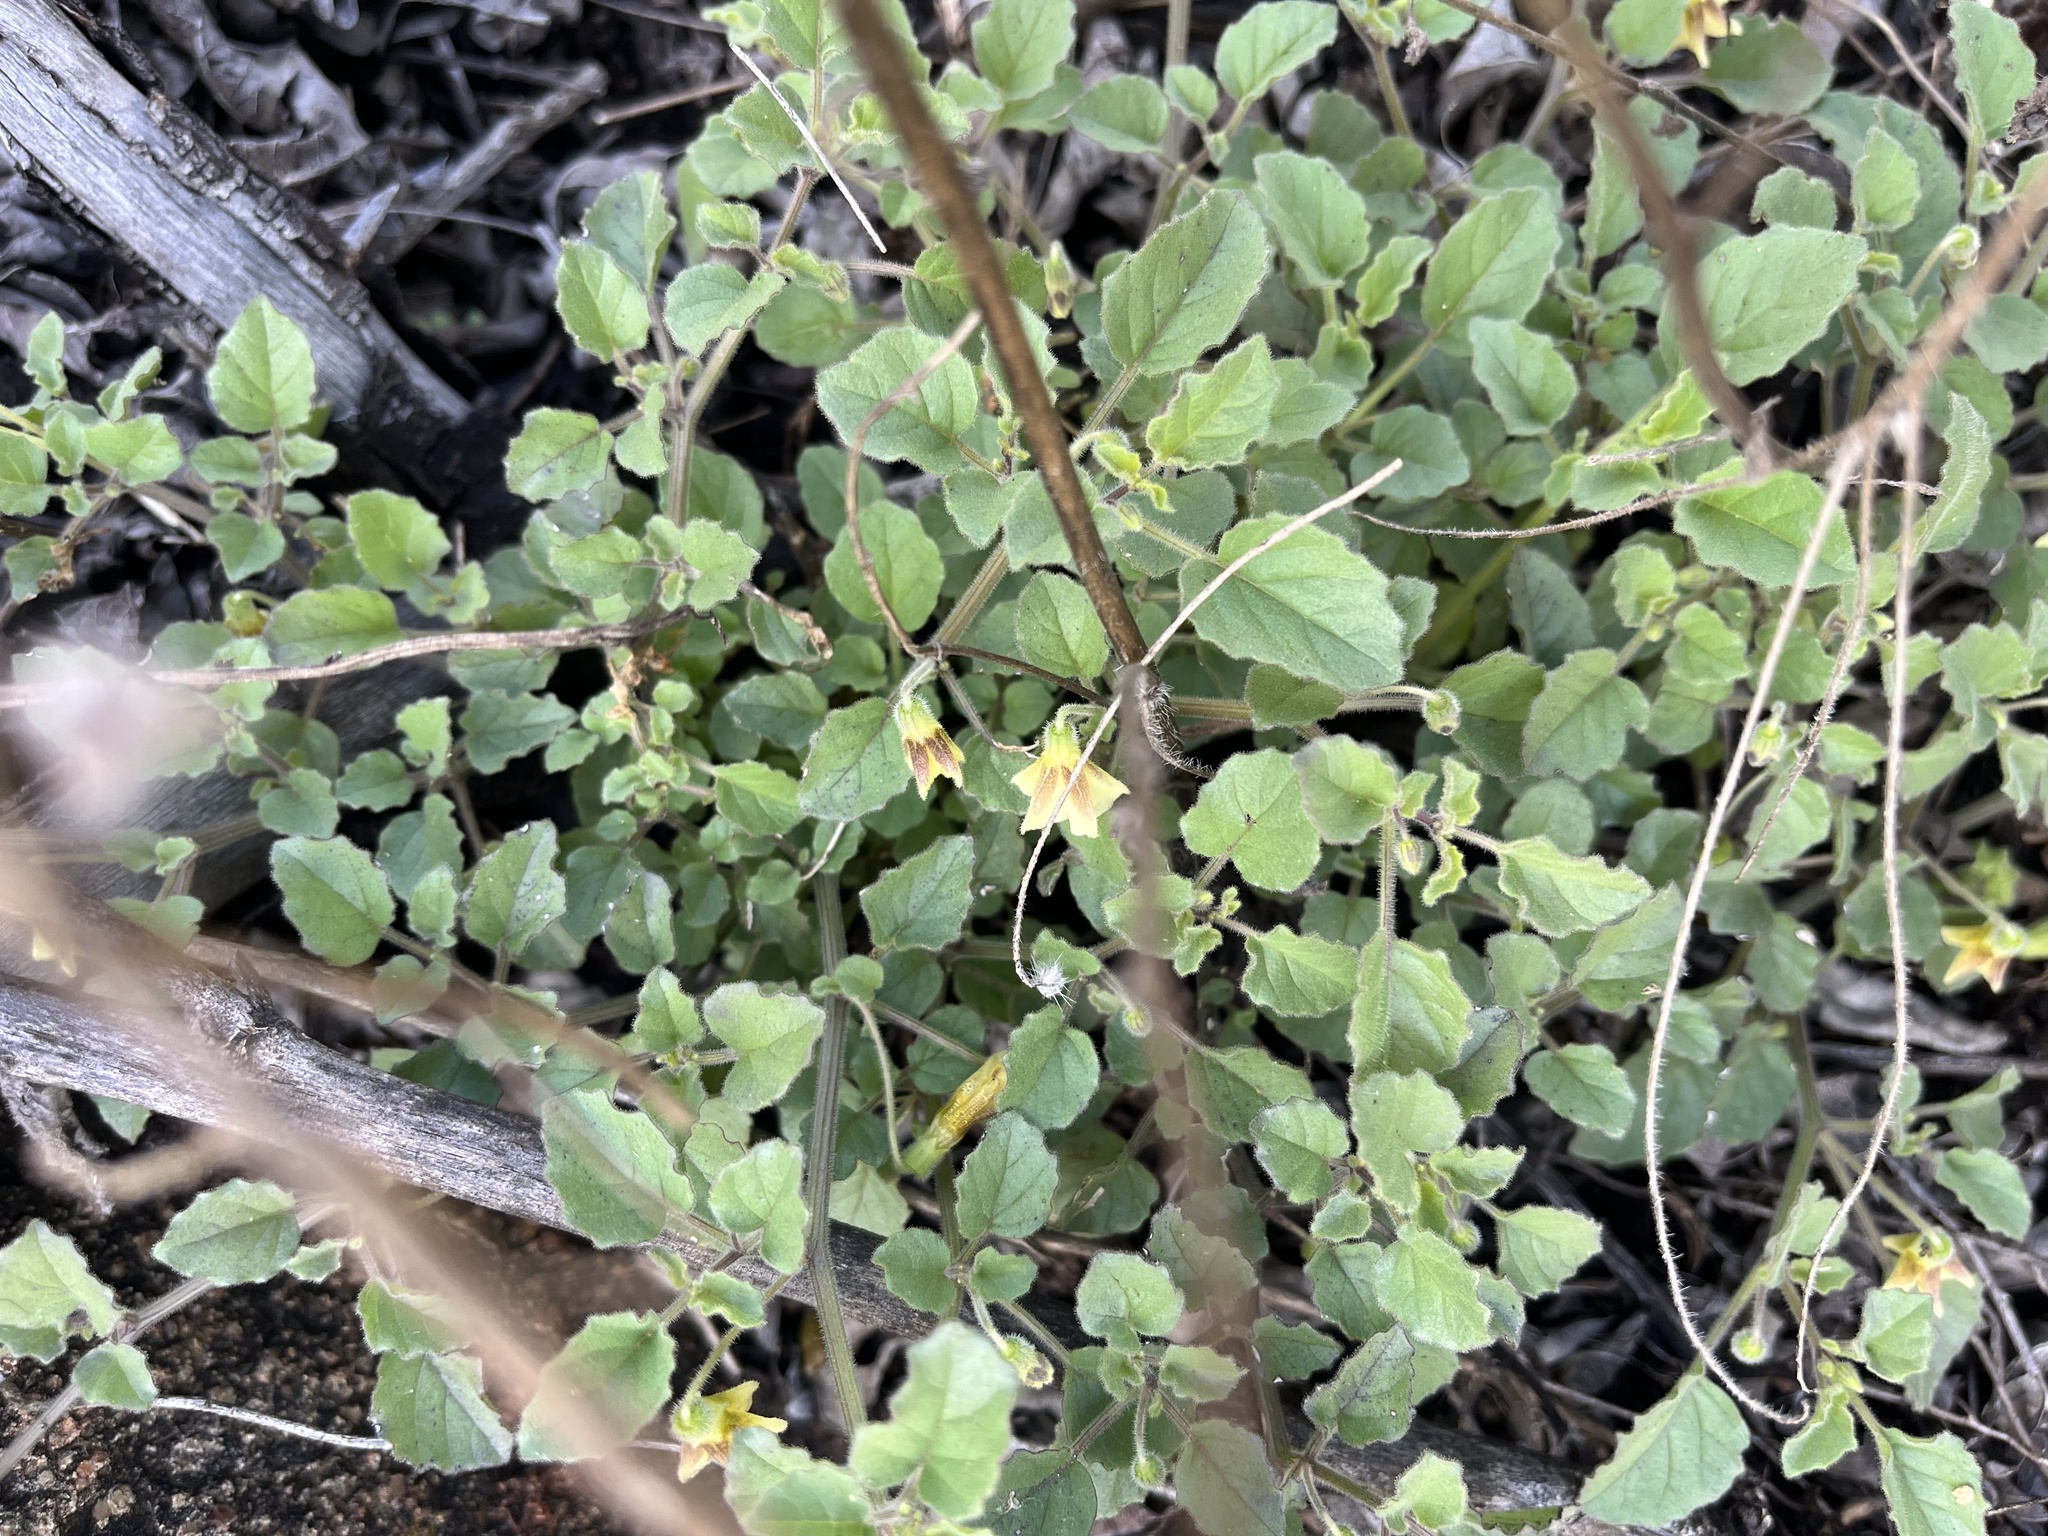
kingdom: Plantae
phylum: Tracheophyta
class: Magnoliopsida
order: Solanales
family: Solanaceae
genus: Physalis
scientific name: Physalis hederifolia
